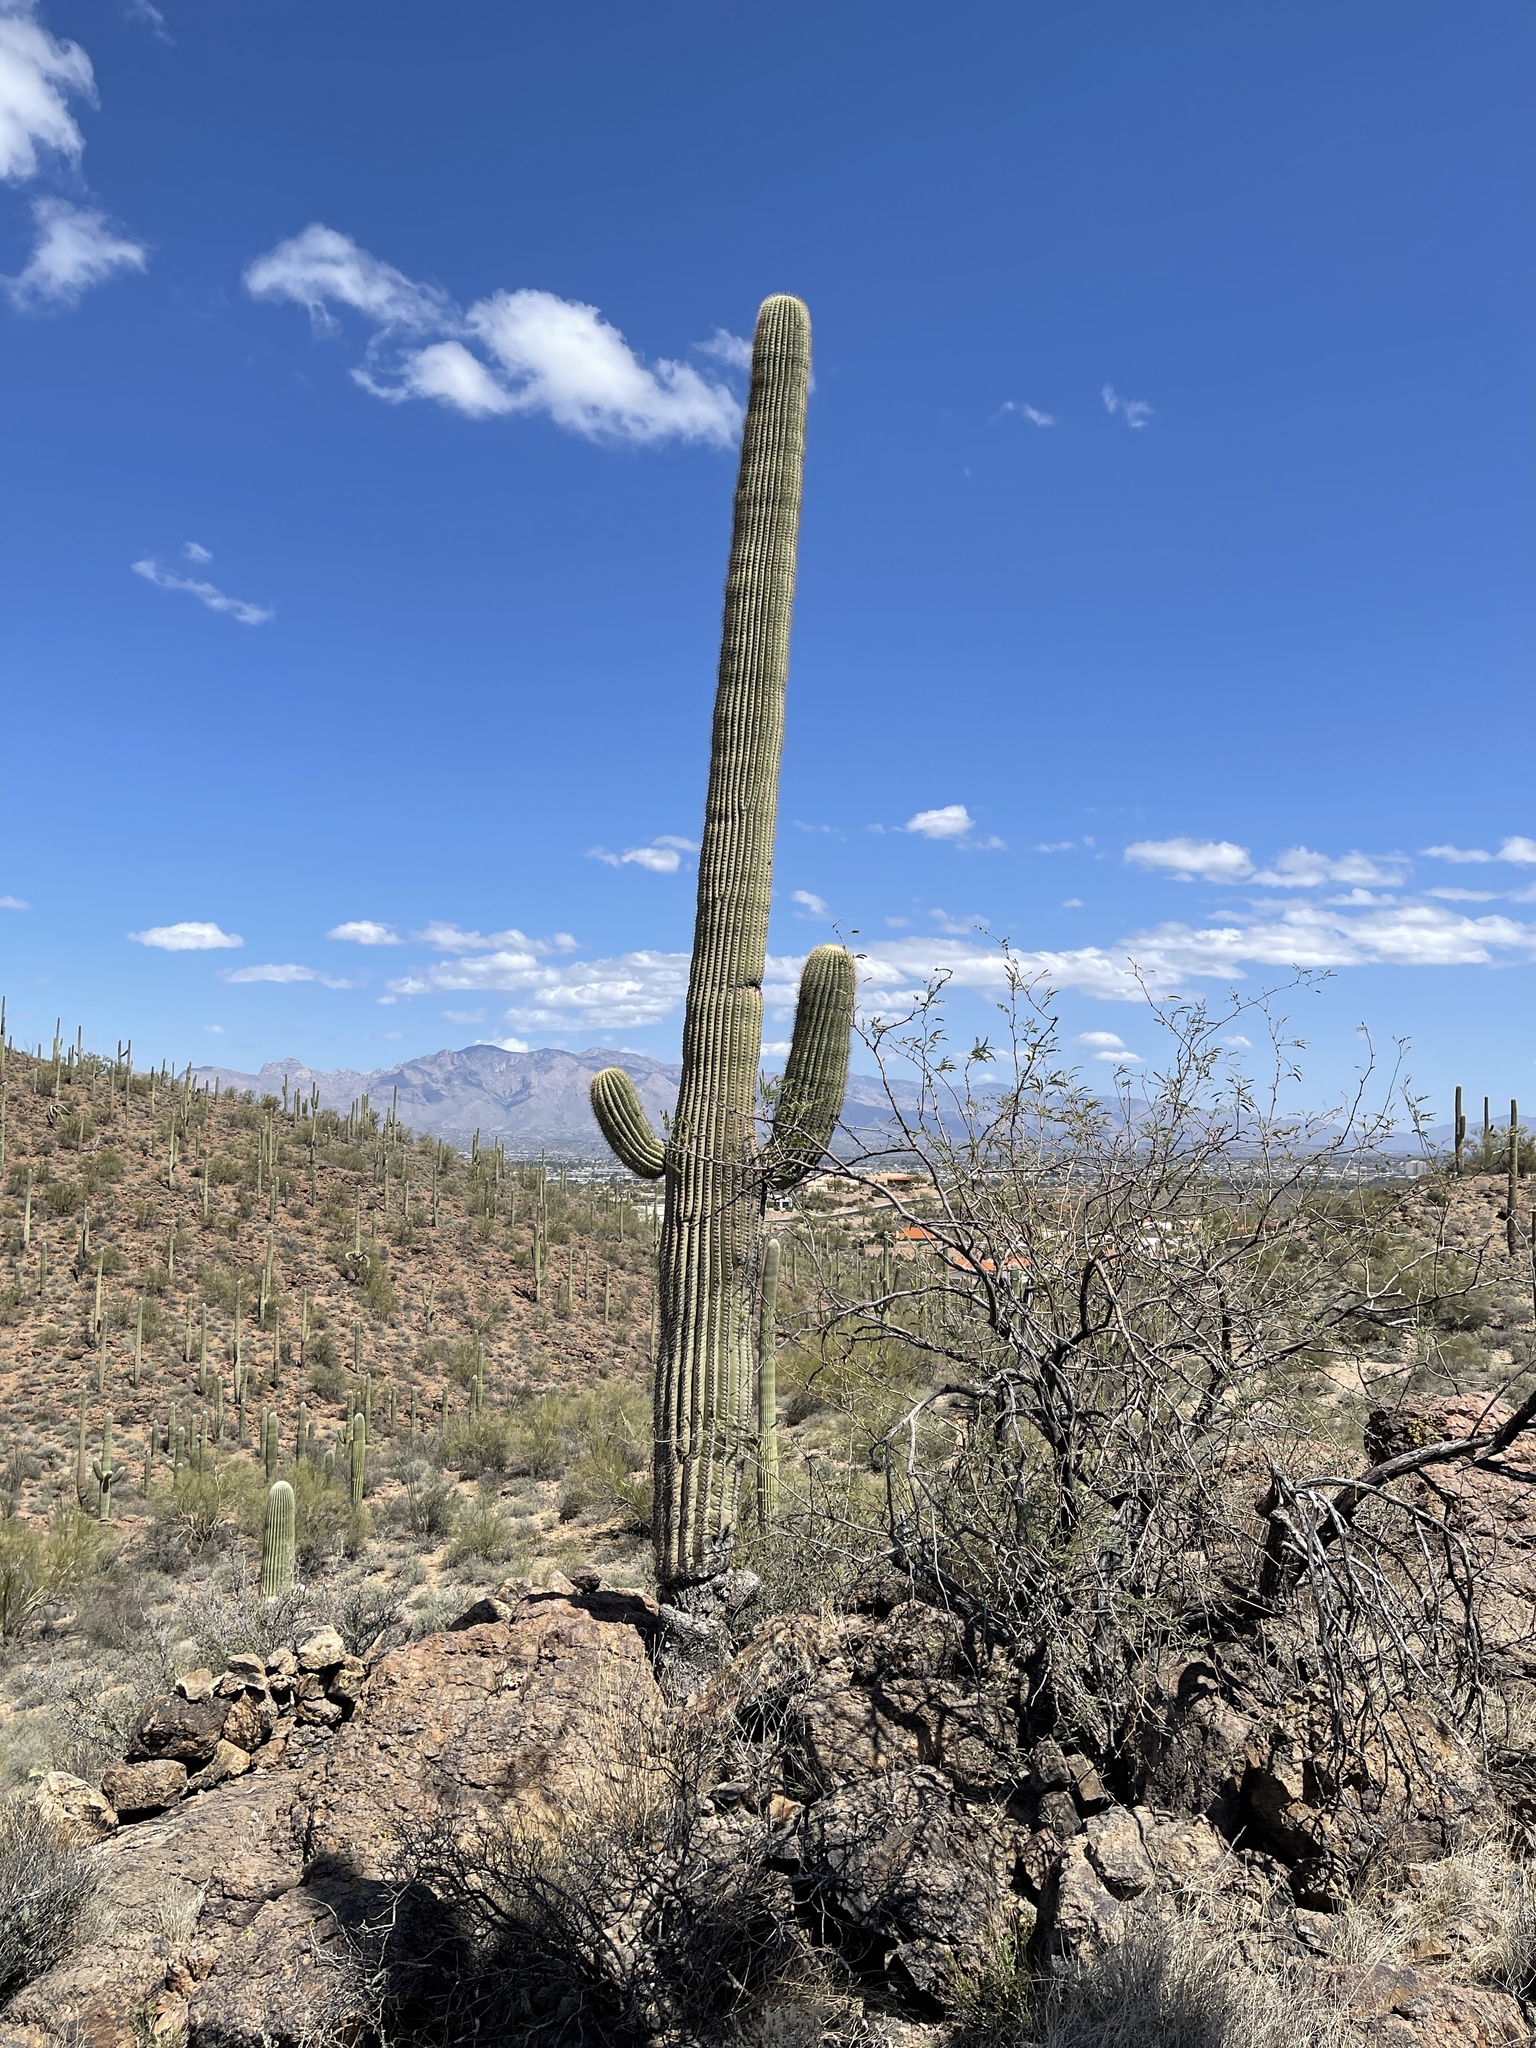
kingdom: Plantae
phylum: Tracheophyta
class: Magnoliopsida
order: Caryophyllales
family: Cactaceae
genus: Carnegiea
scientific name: Carnegiea gigantea
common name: Saguaro
